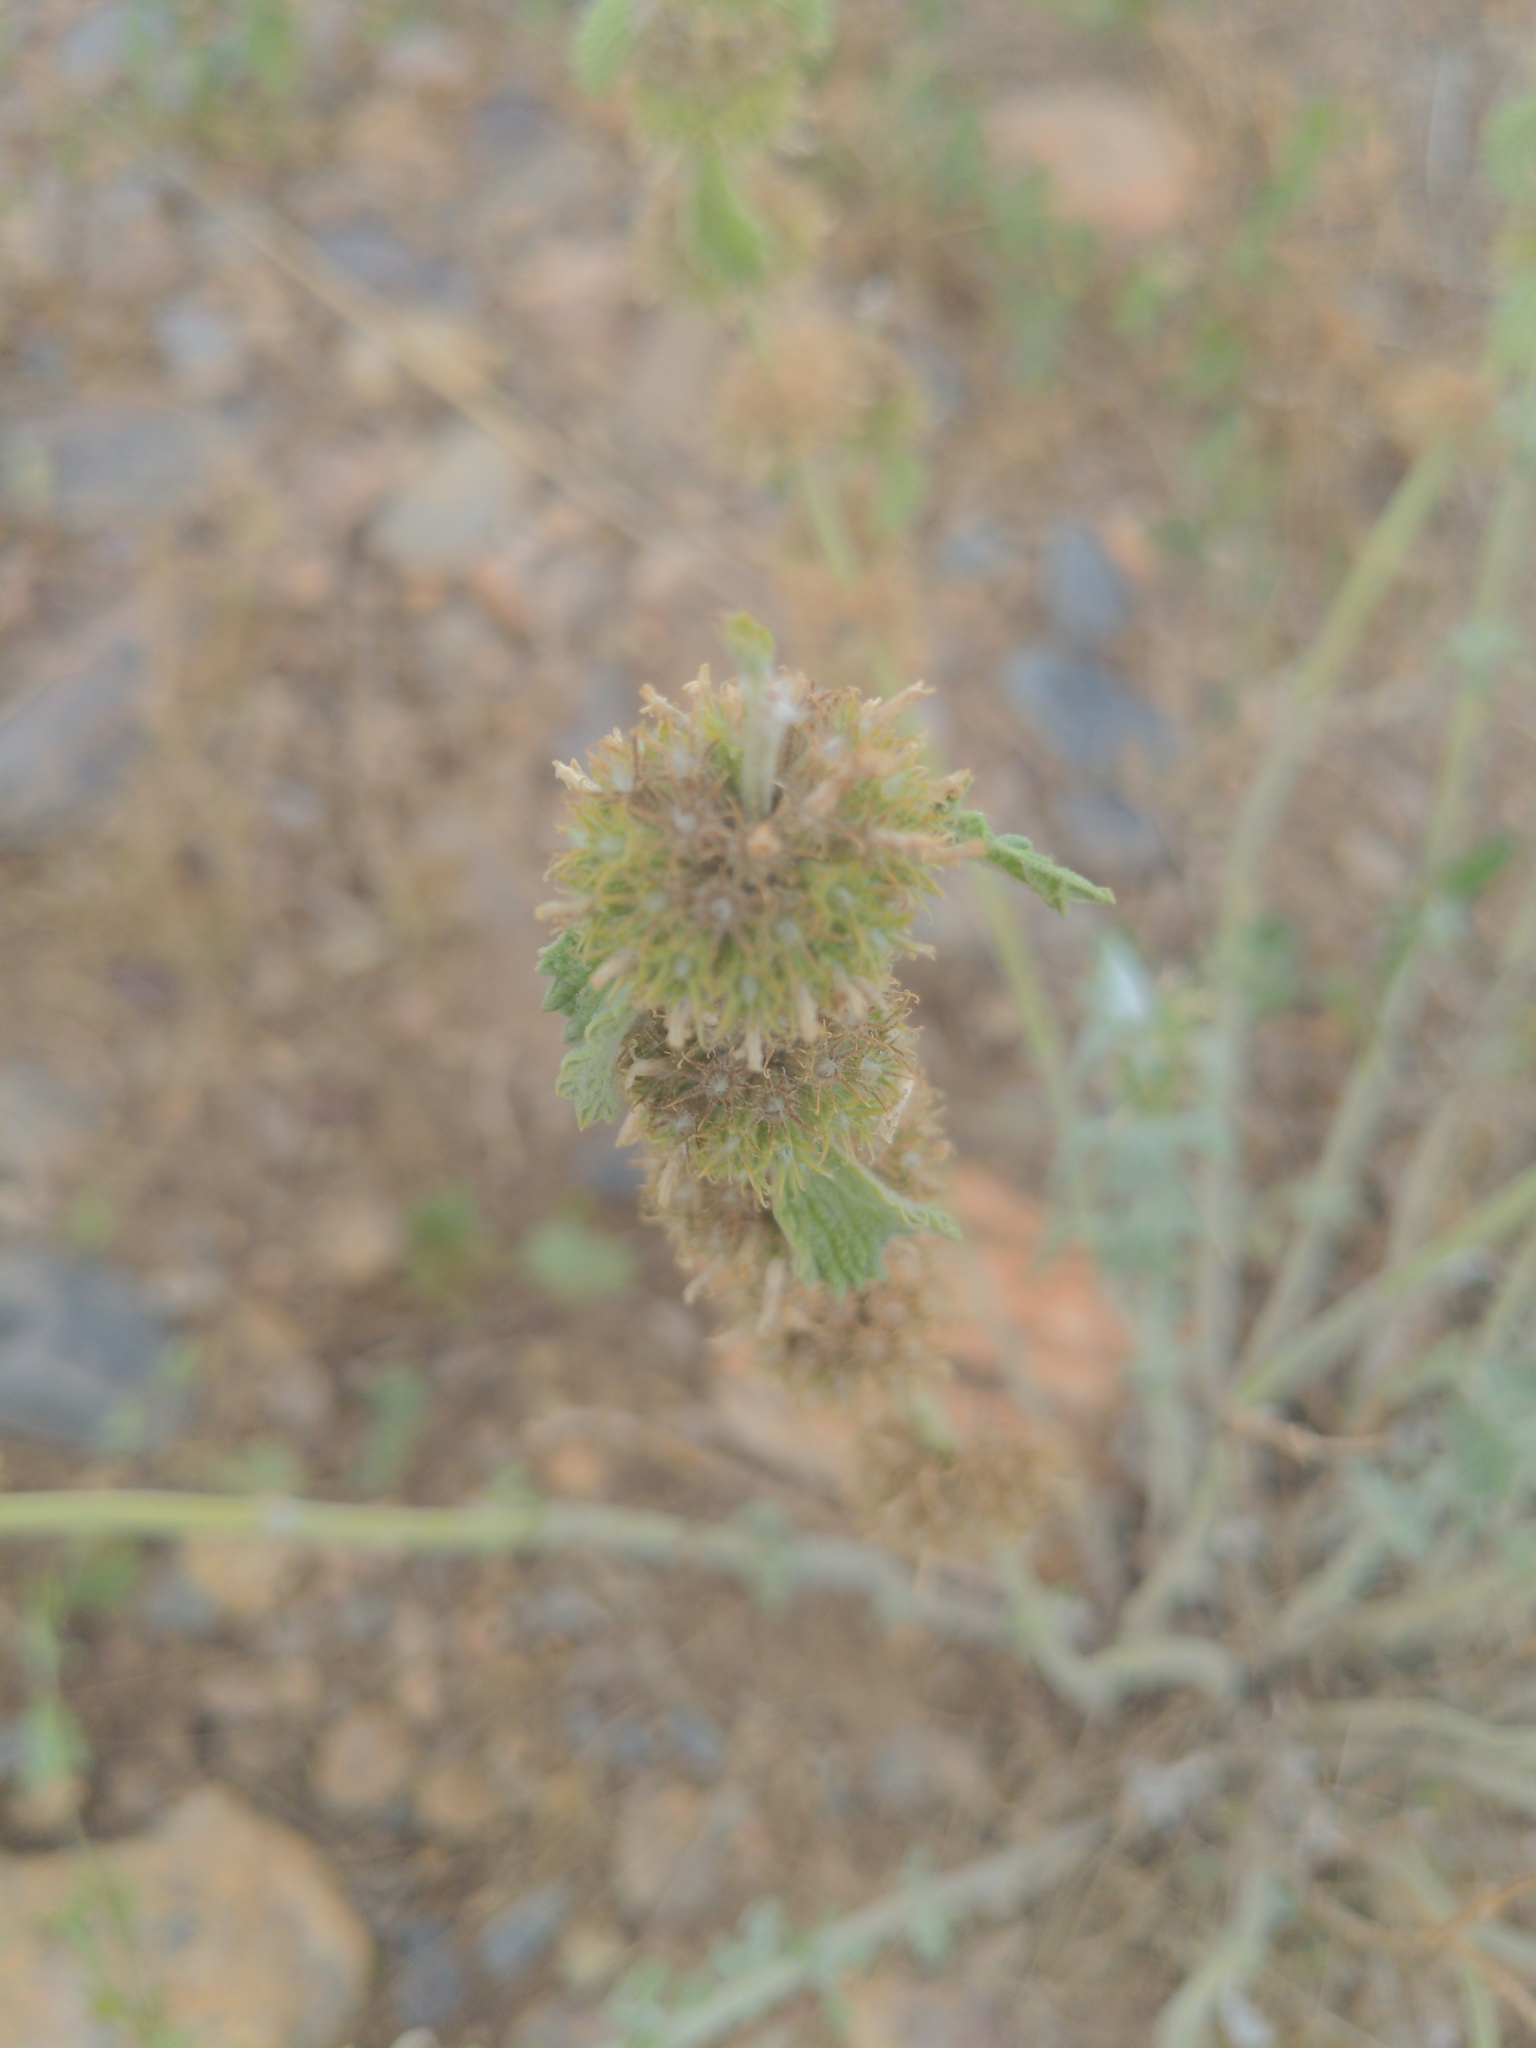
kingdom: Plantae
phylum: Tracheophyta
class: Magnoliopsida
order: Lamiales
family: Lamiaceae
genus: Marrubium
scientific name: Marrubium vulgare
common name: Horehound
